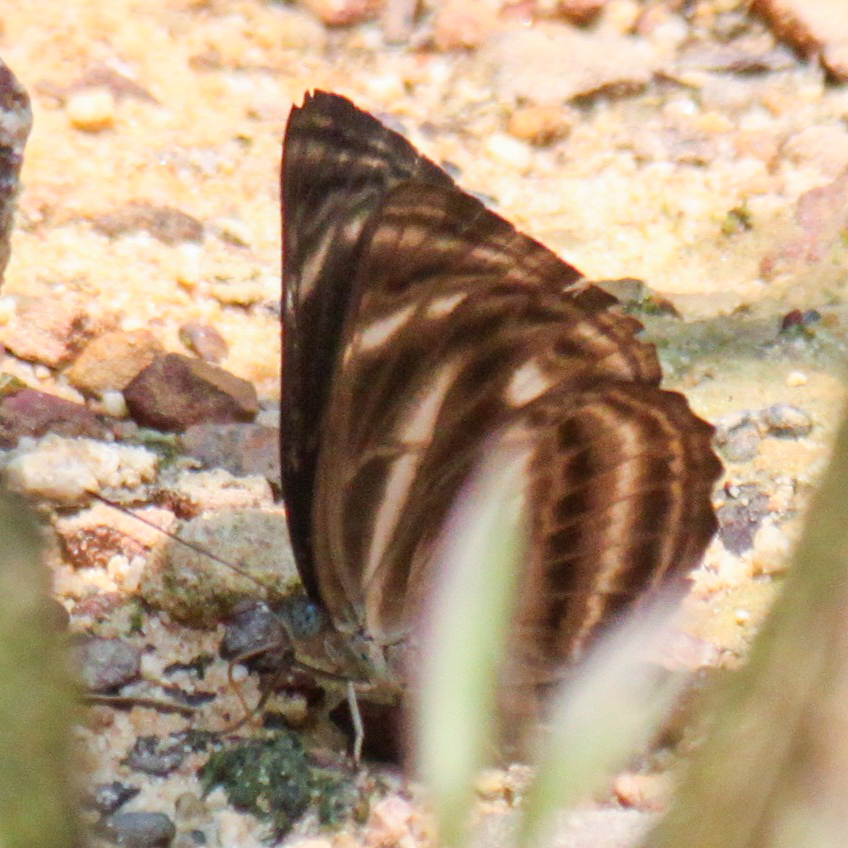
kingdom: Animalia
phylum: Arthropoda
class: Insecta
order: Lepidoptera
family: Nymphalidae
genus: Neptis
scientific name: Neptis harita
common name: Chocolate sailer
